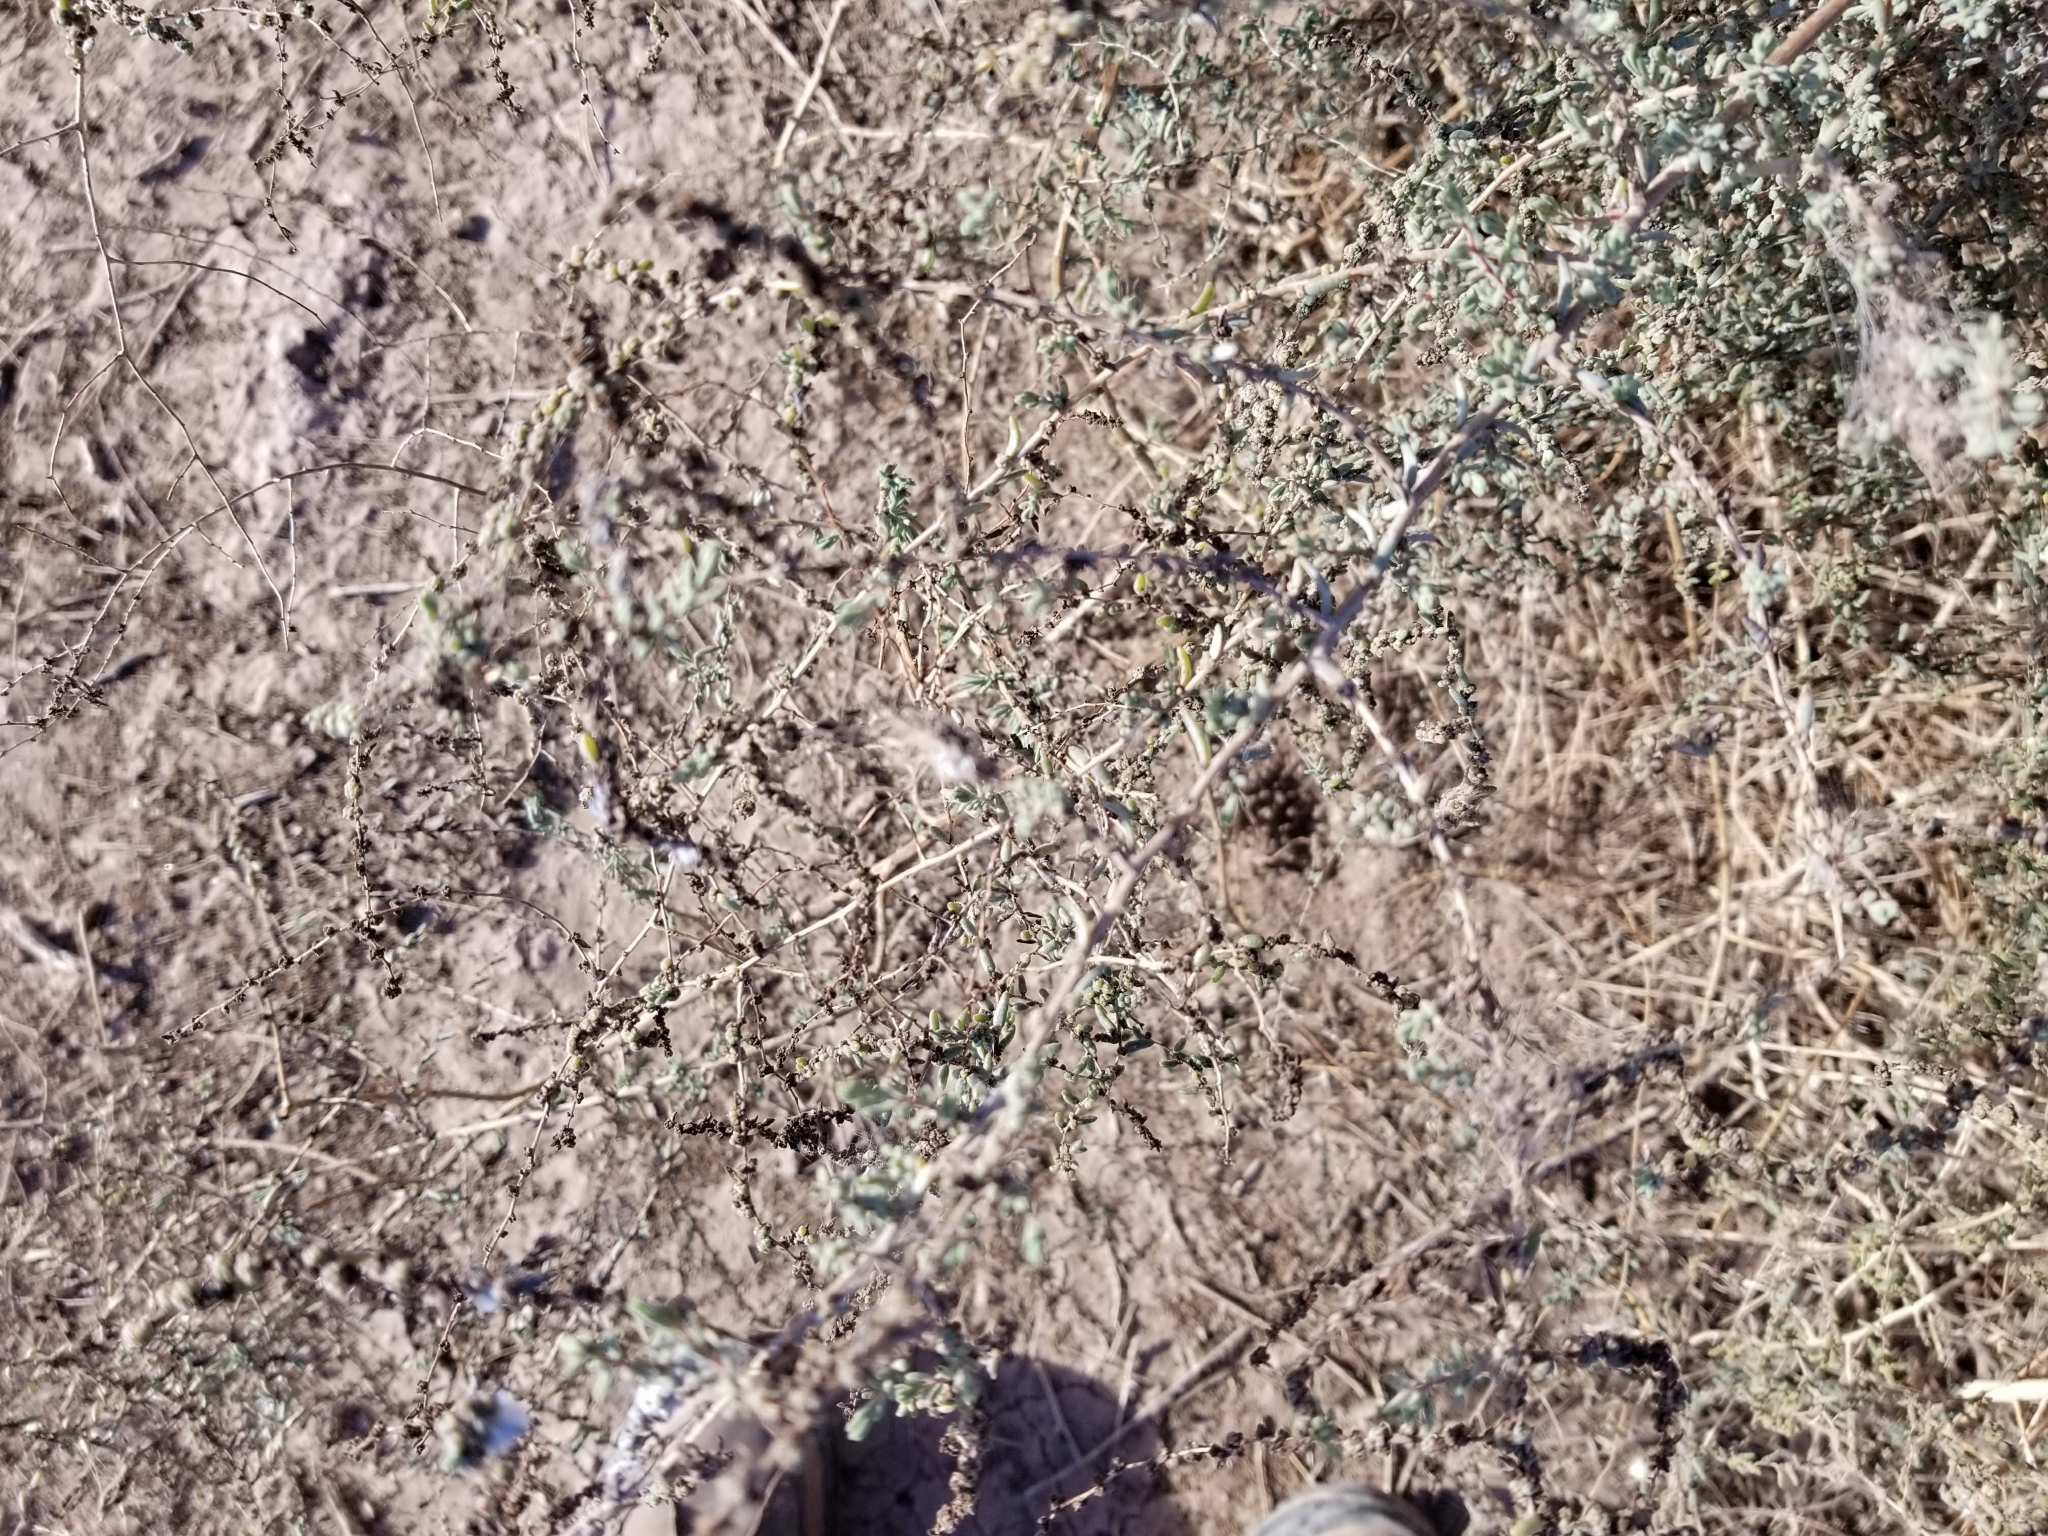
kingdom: Plantae
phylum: Tracheophyta
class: Magnoliopsida
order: Caryophyllales
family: Amaranthaceae
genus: Suaeda
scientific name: Suaeda nigra
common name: Bush seepweed
